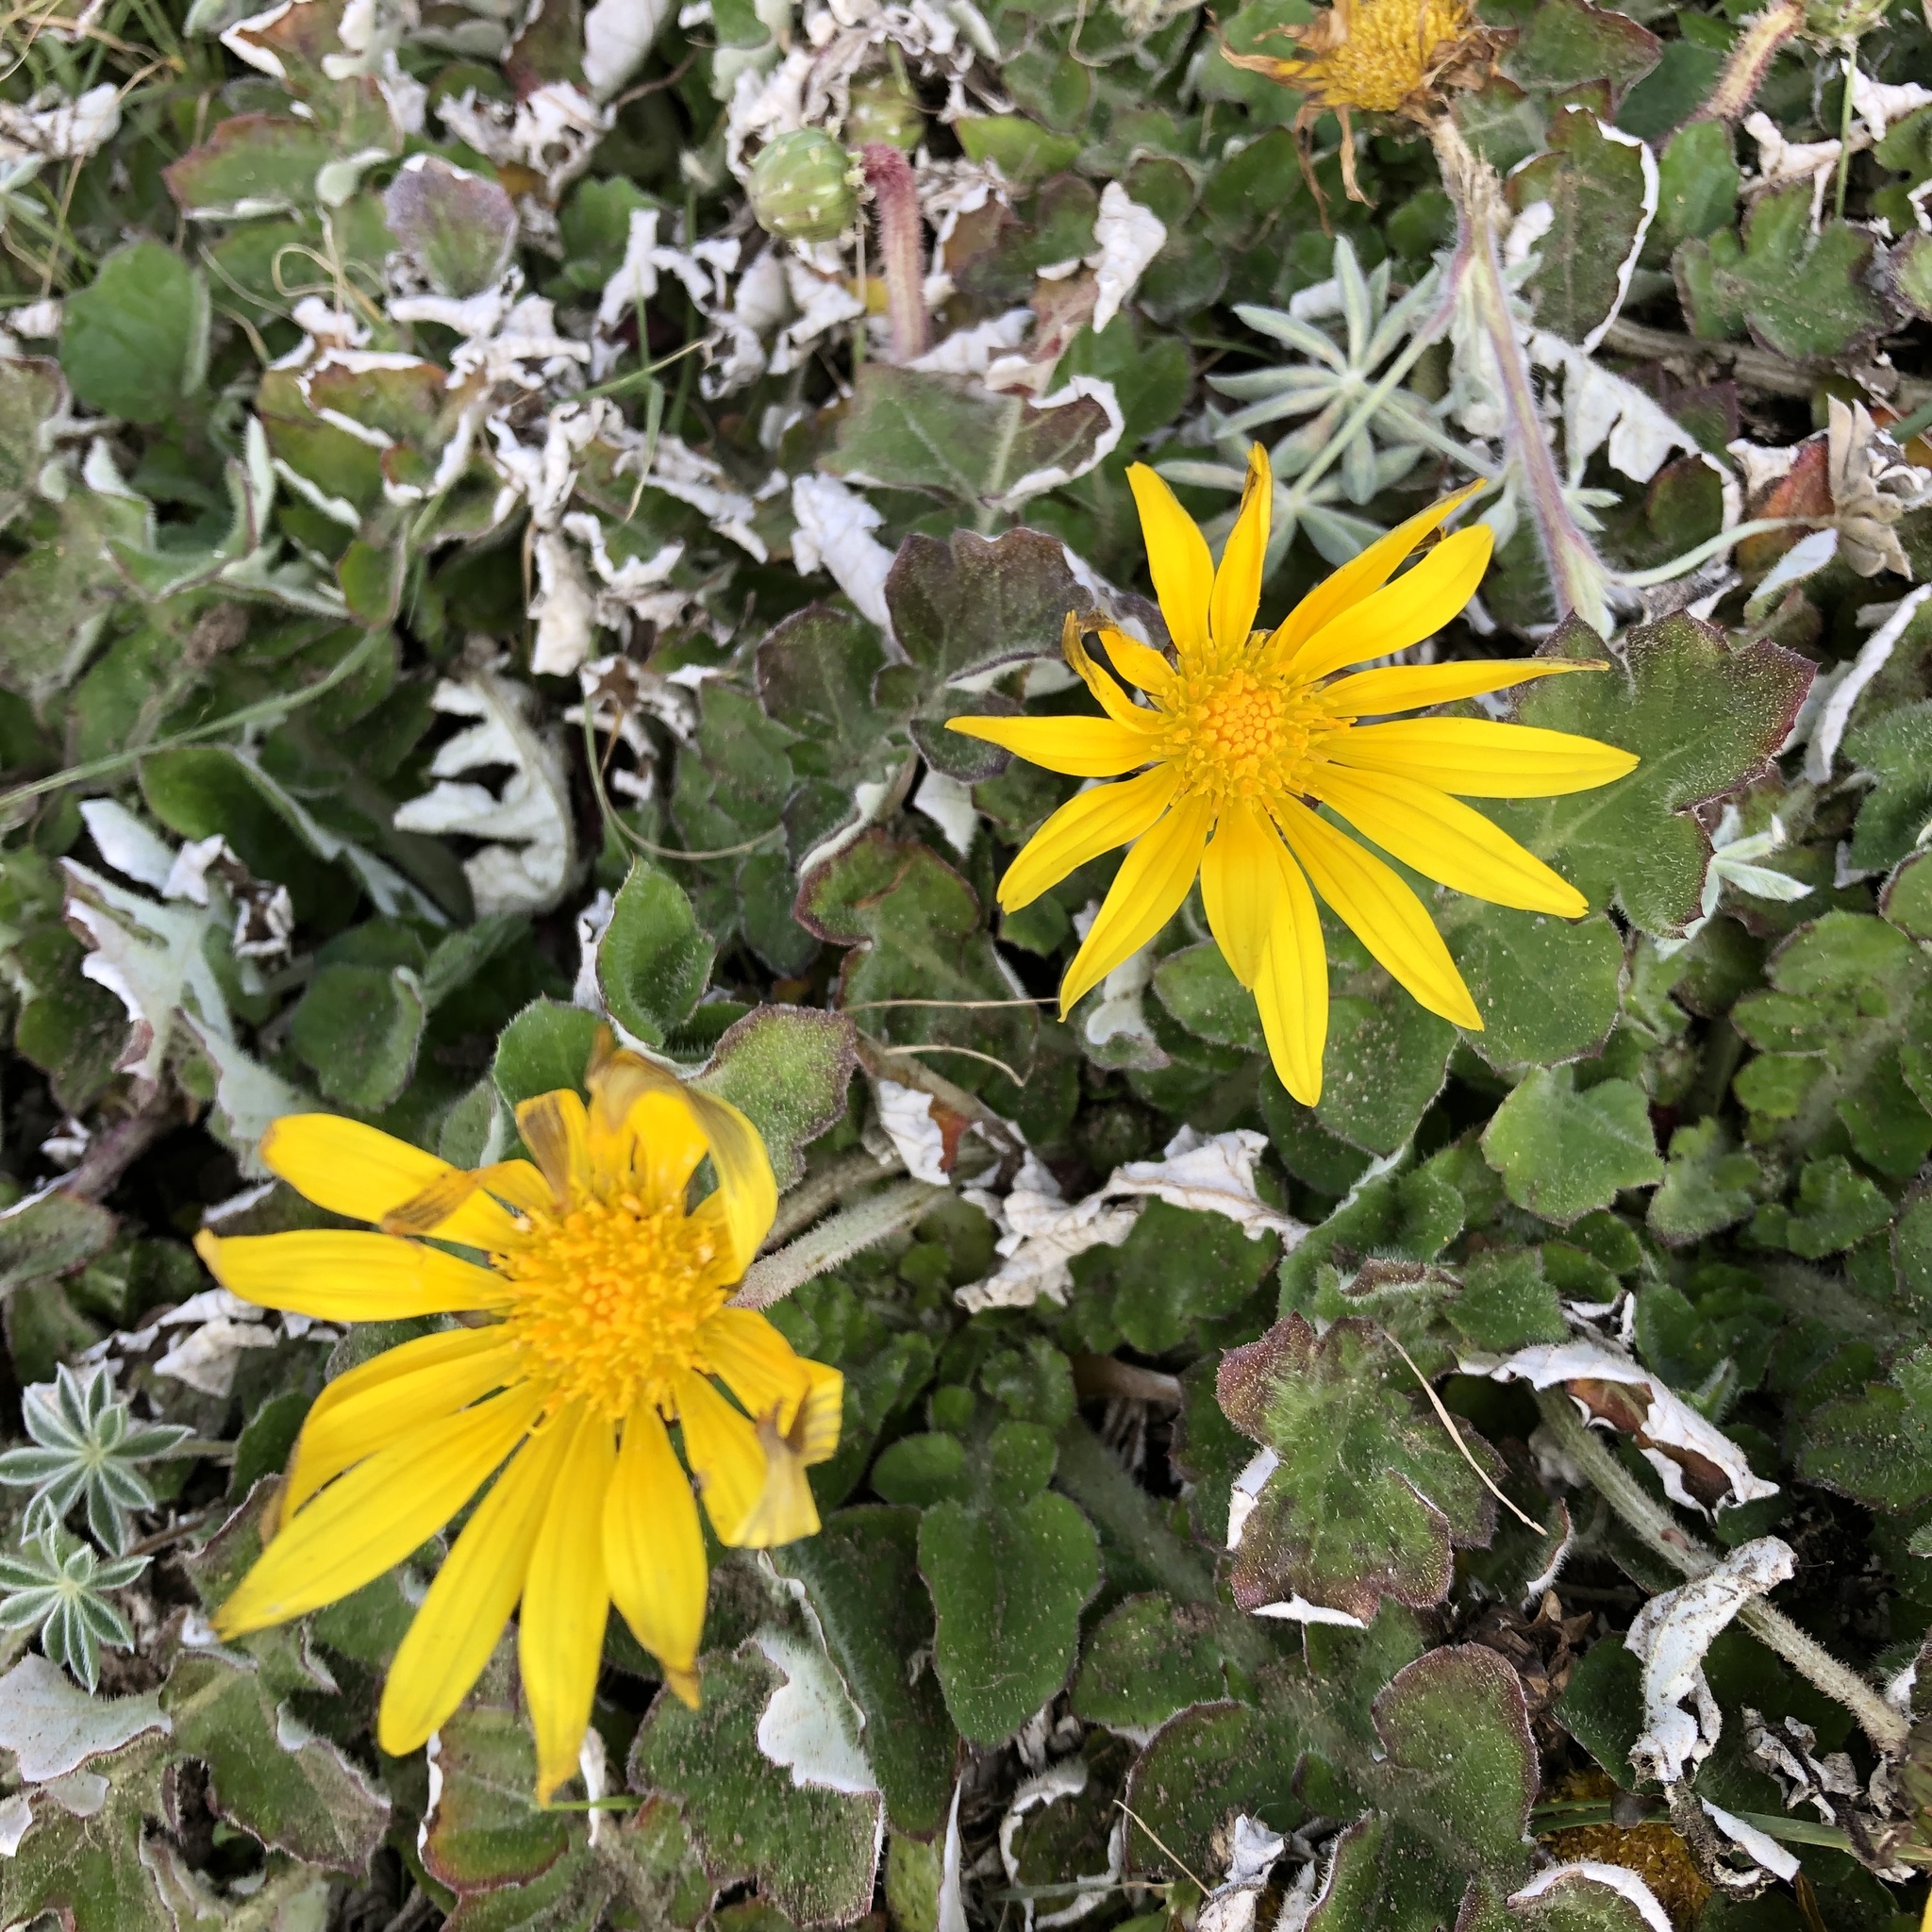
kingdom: Plantae
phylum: Tracheophyta
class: Magnoliopsida
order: Asterales
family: Asteraceae
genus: Arctotheca
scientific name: Arctotheca prostrata
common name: Capeweed
